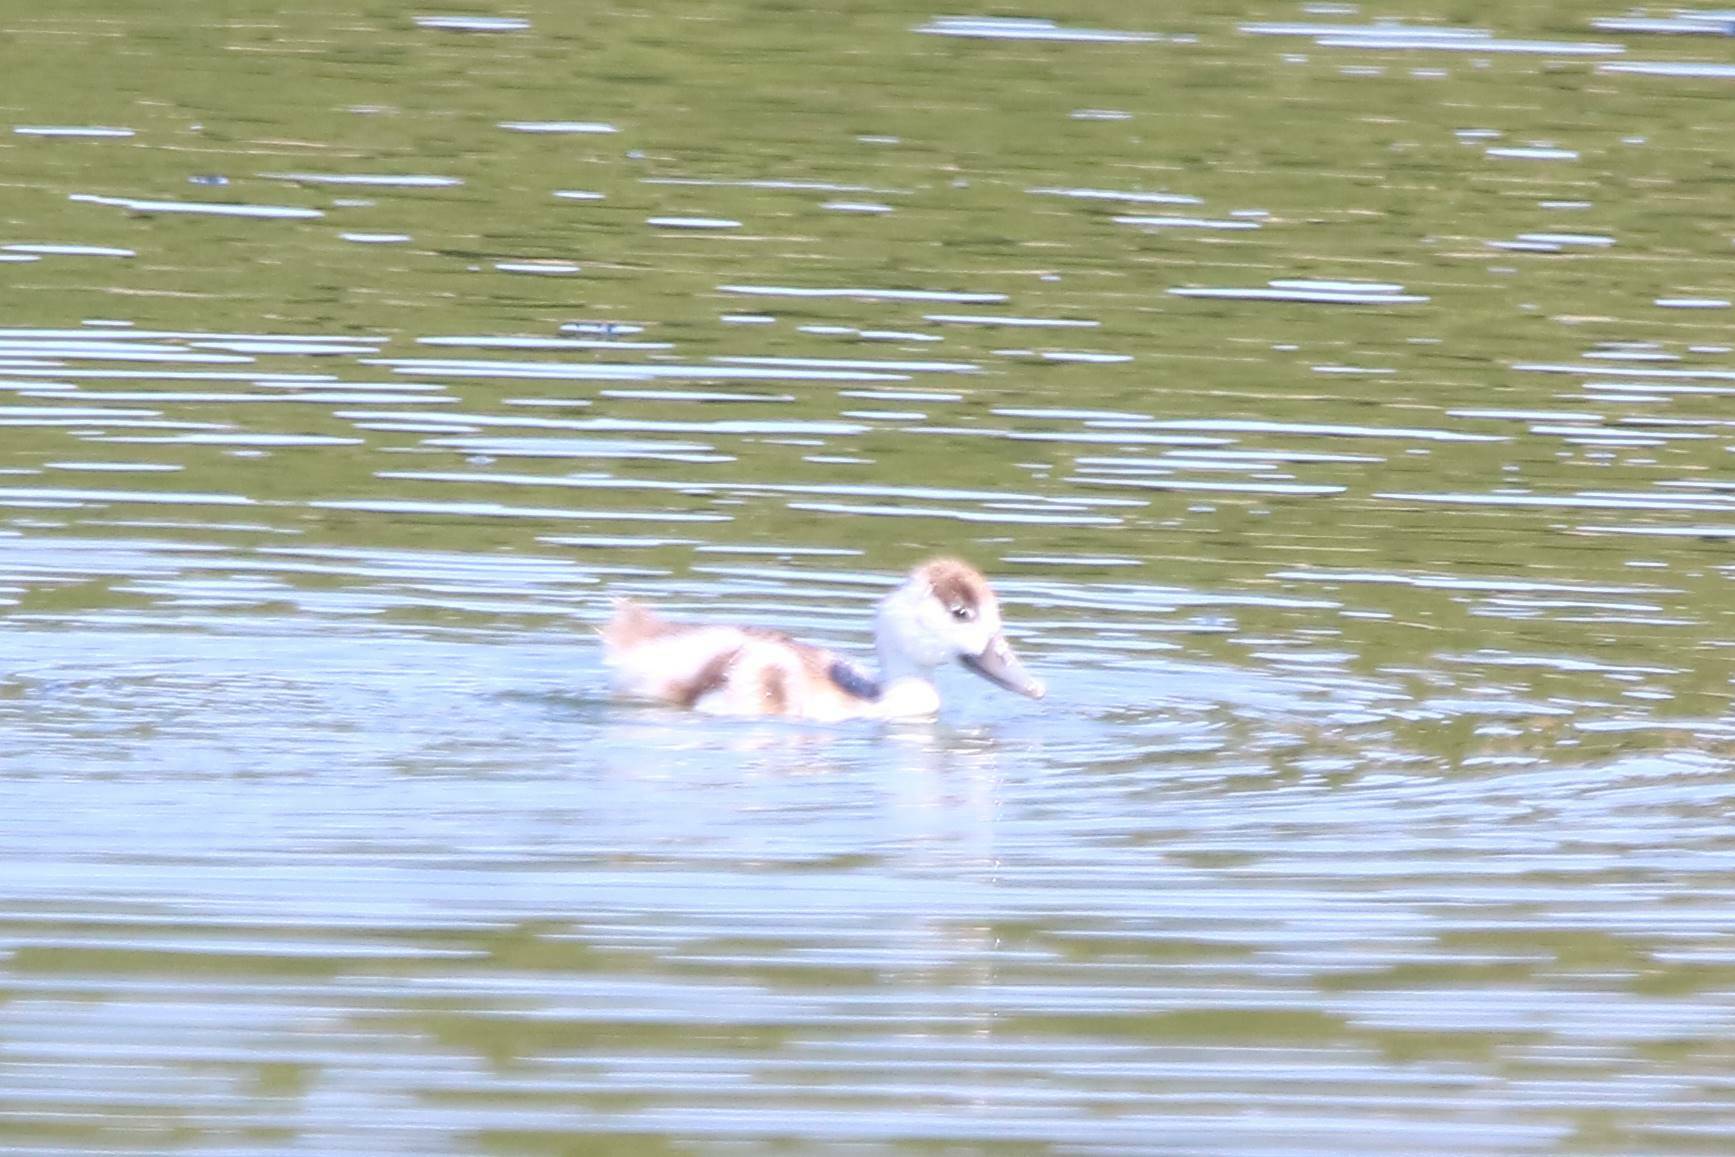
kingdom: Animalia
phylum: Chordata
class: Aves
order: Anseriformes
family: Anatidae
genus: Tadorna
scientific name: Tadorna tadorna
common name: Common shelduck
